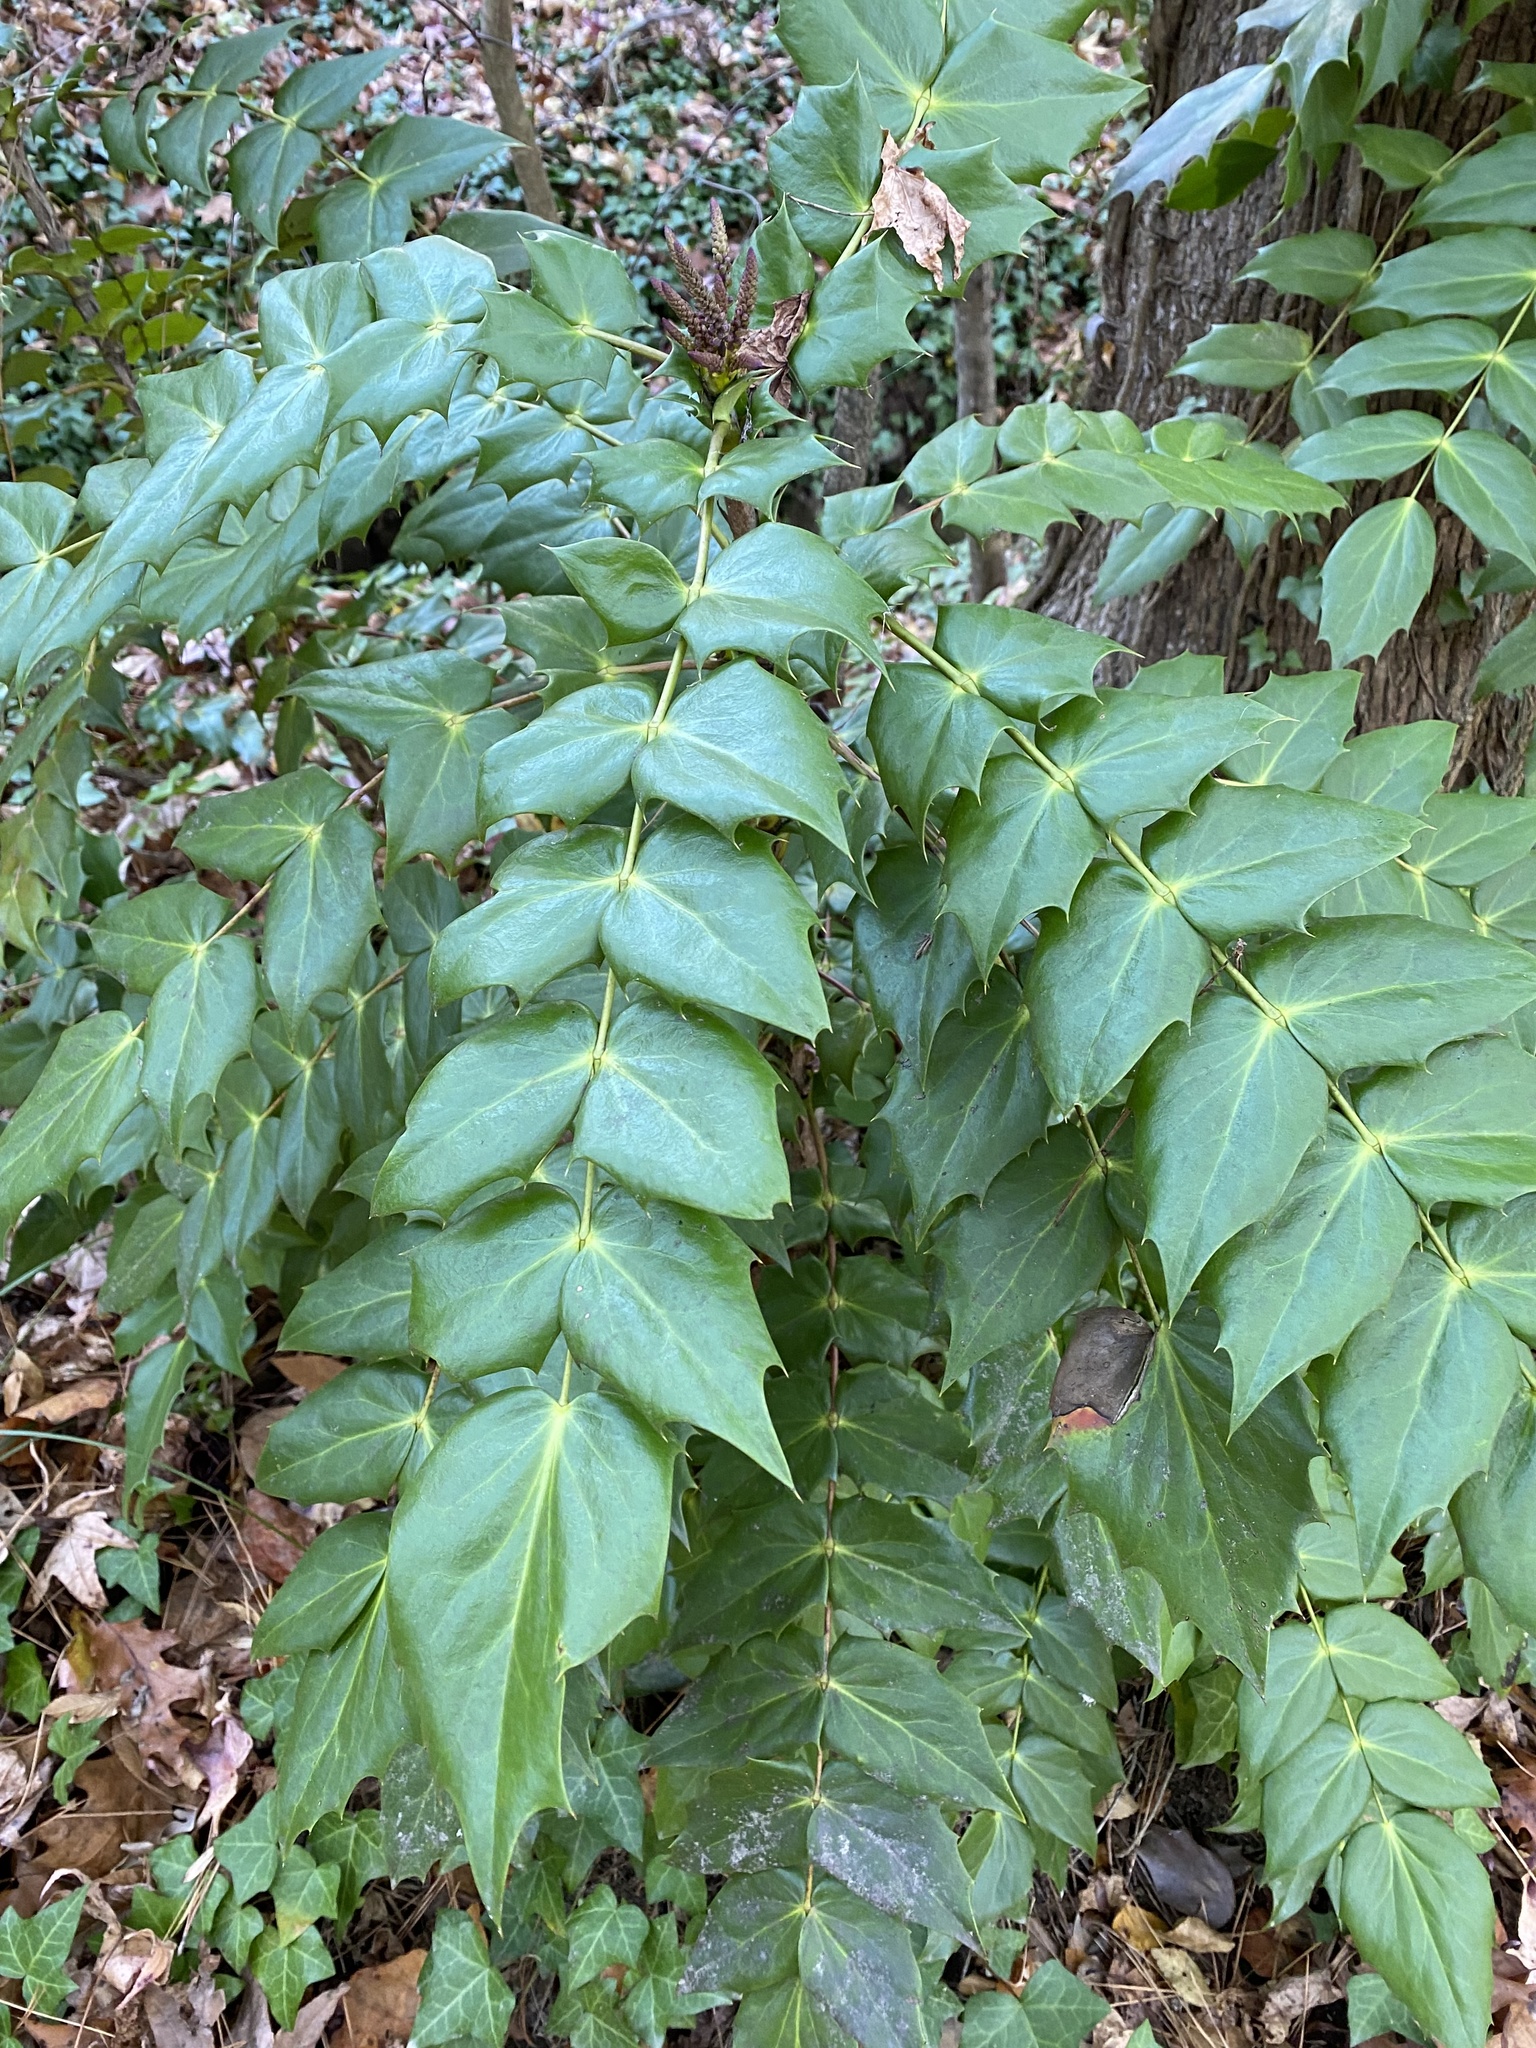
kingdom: Plantae
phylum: Tracheophyta
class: Magnoliopsida
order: Ranunculales
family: Berberidaceae
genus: Mahonia
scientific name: Mahonia bealei
